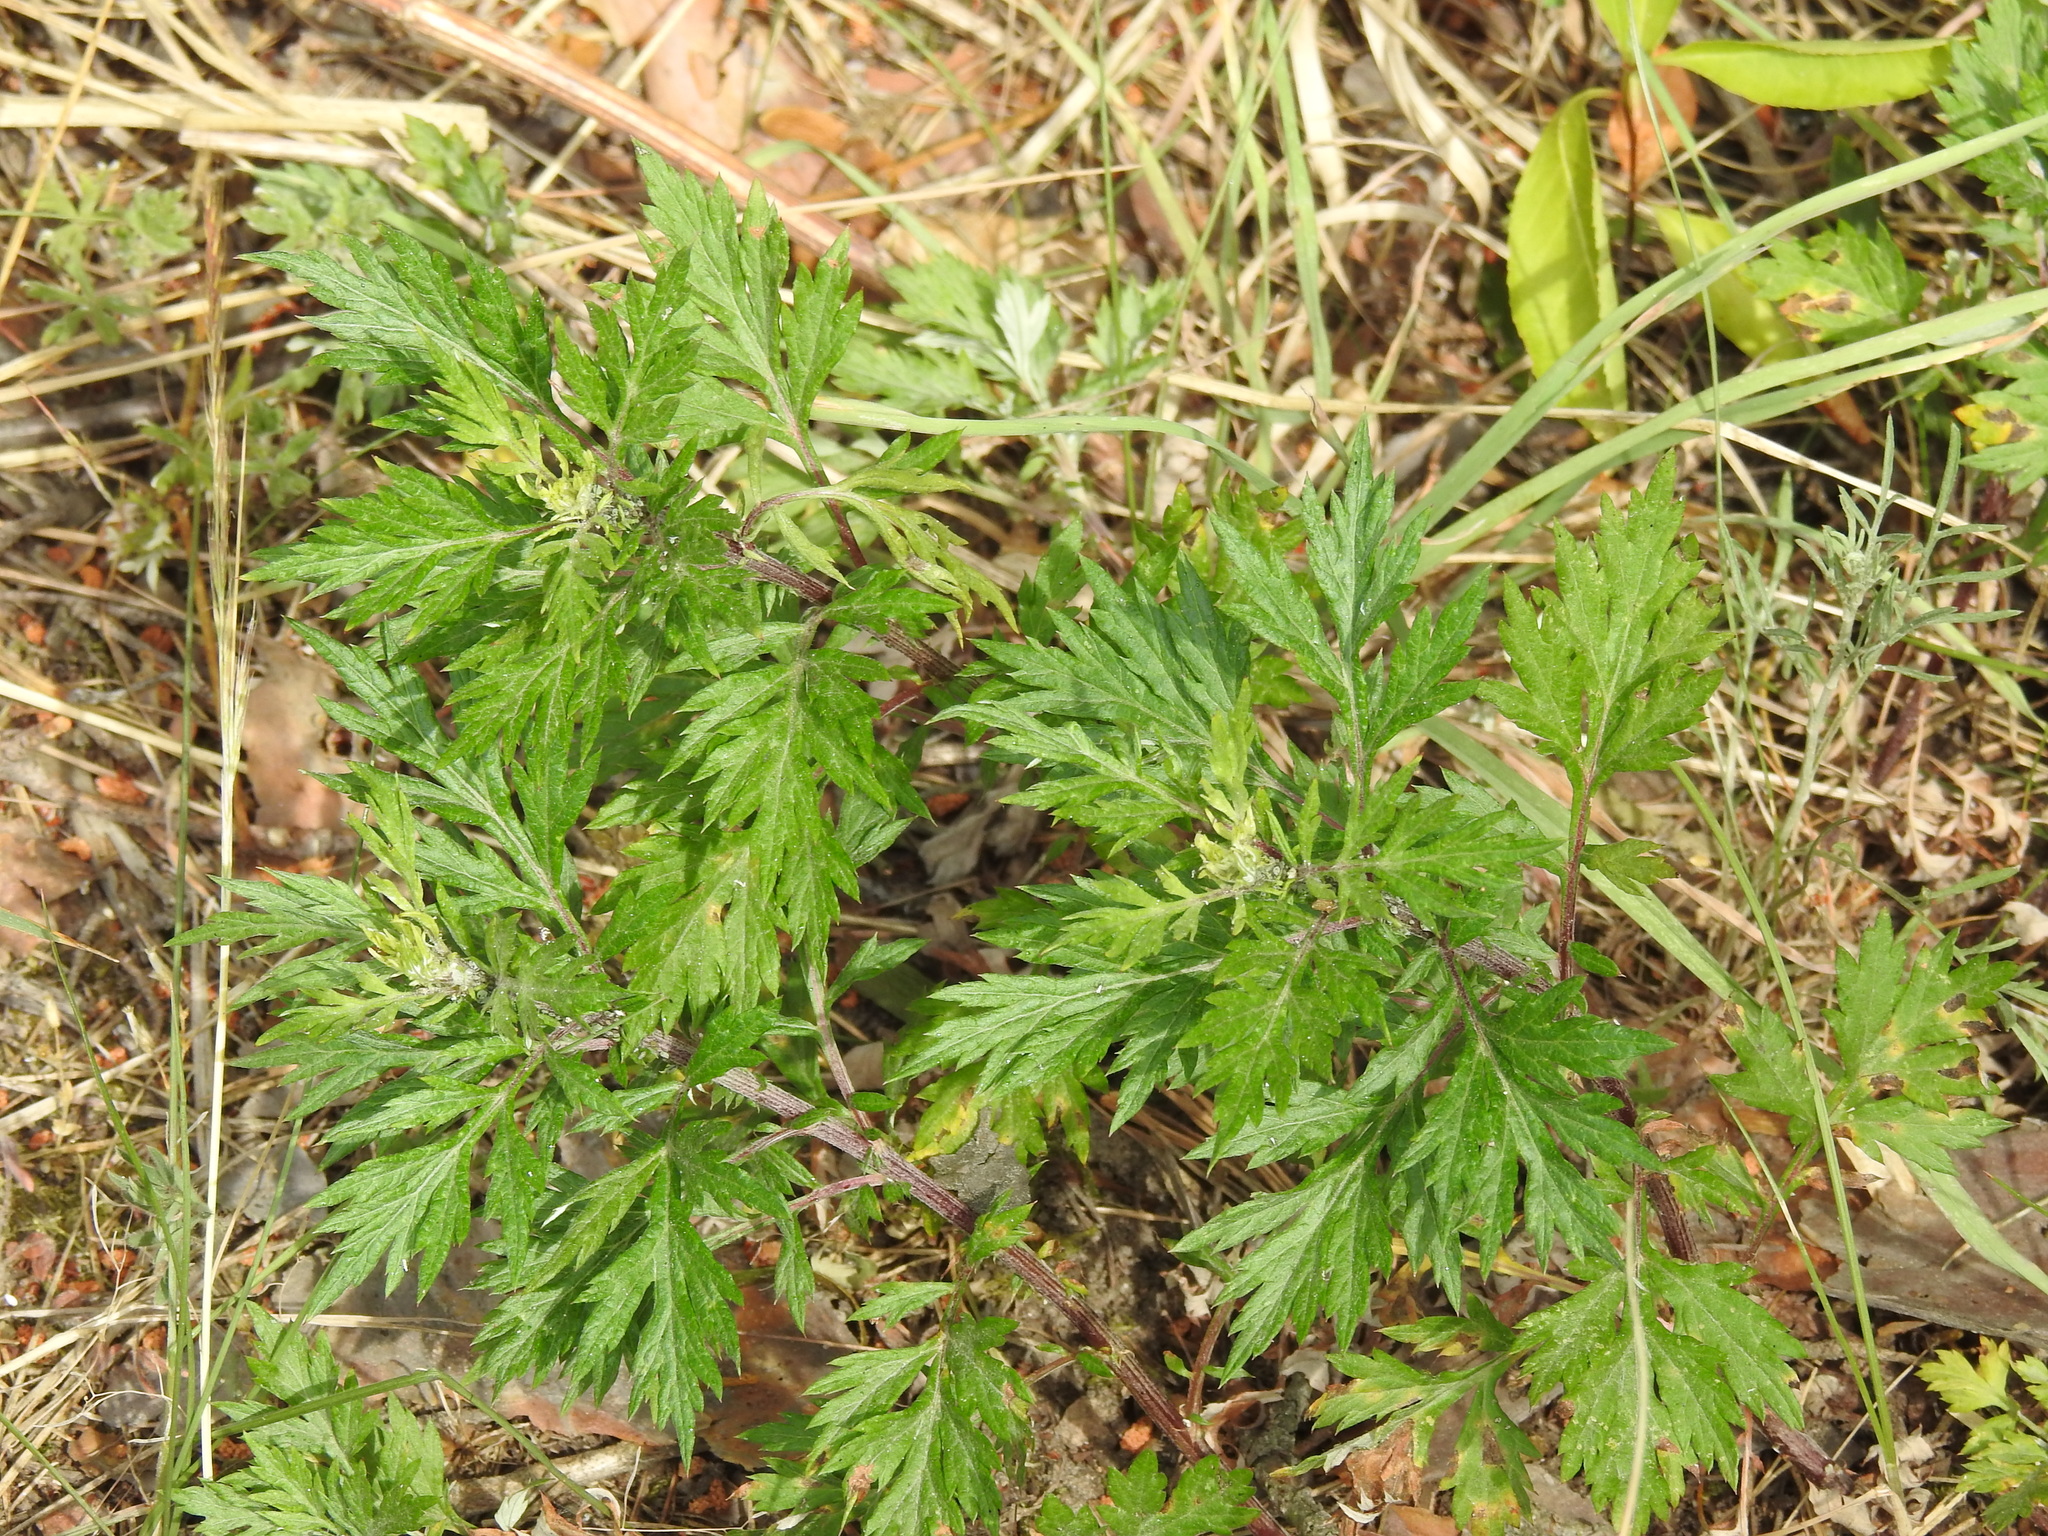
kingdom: Plantae
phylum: Tracheophyta
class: Magnoliopsida
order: Asterales
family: Asteraceae
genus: Artemisia
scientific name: Artemisia vulgaris
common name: Mugwort
